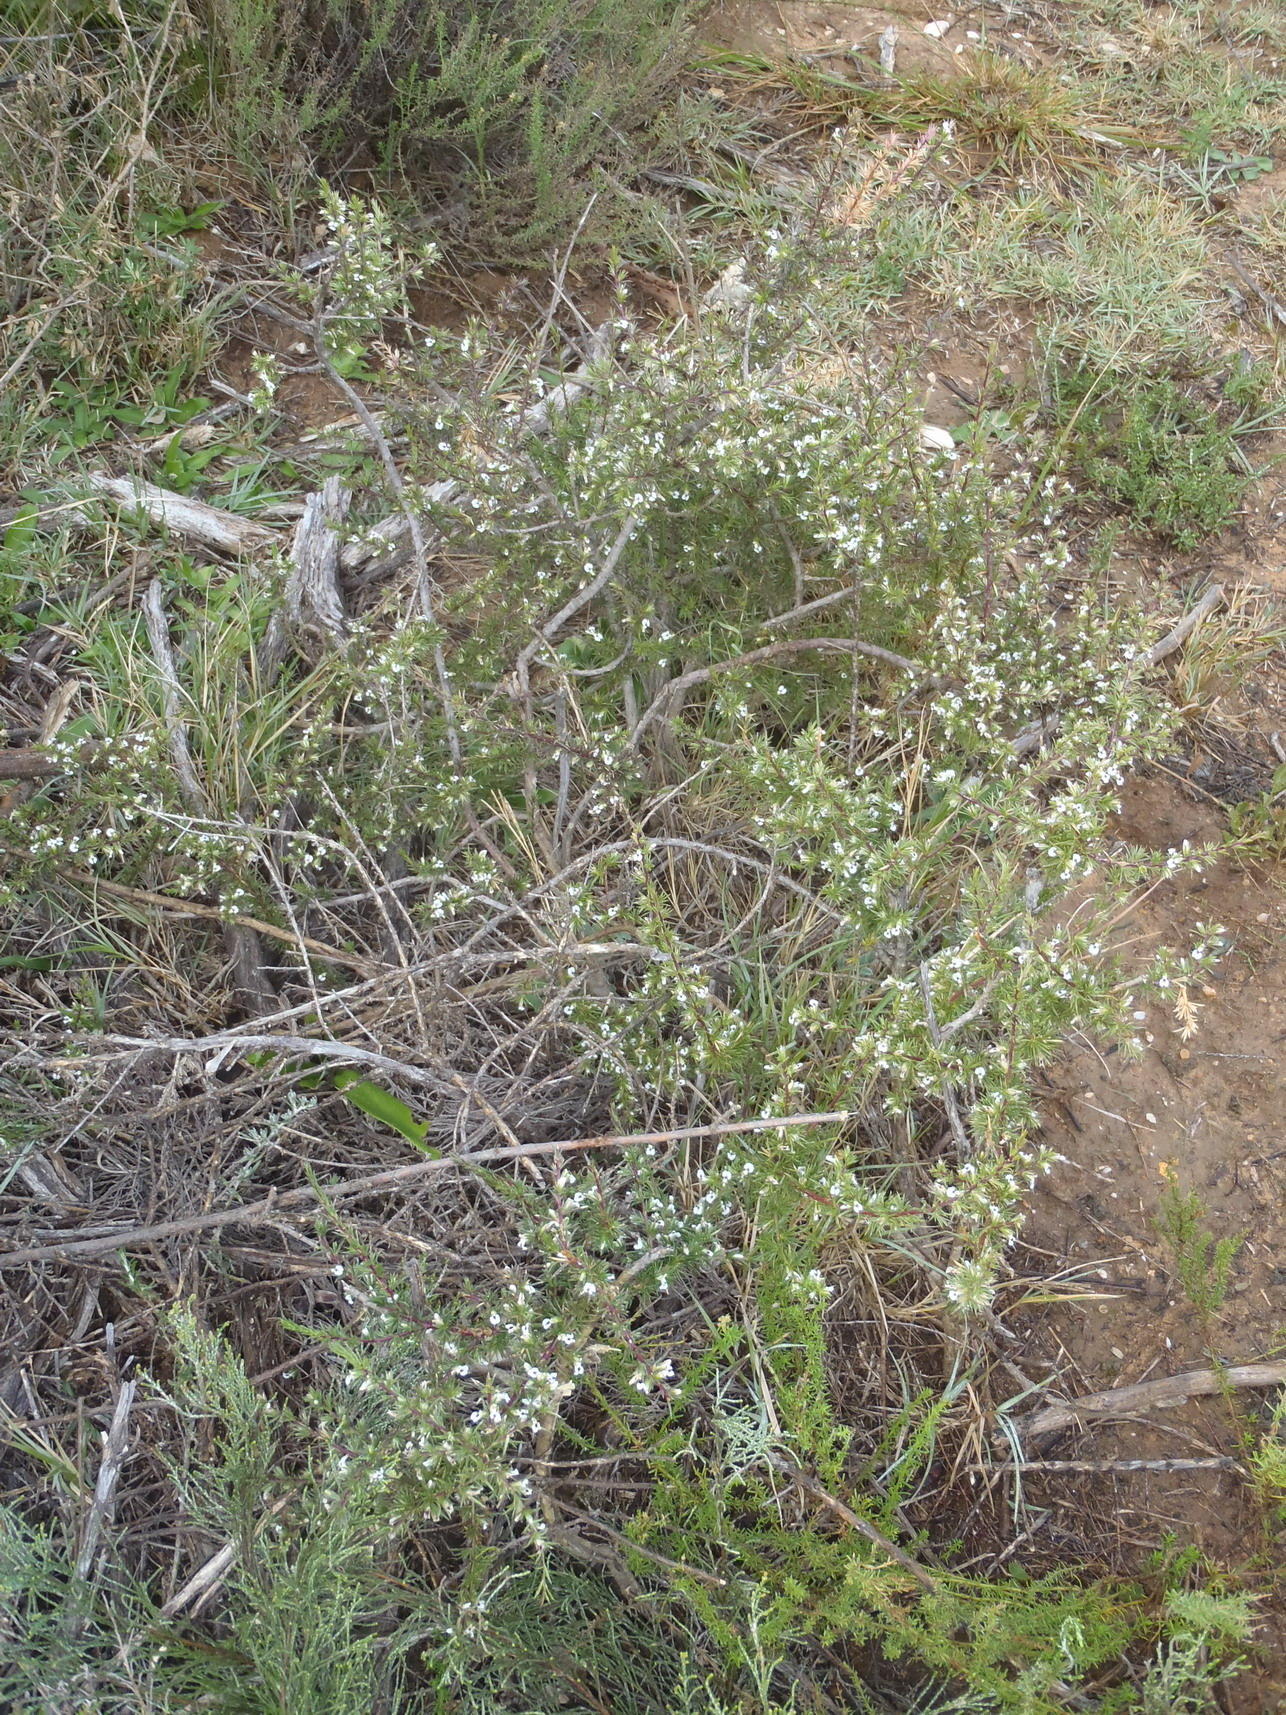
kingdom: Plantae
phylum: Tracheophyta
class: Magnoliopsida
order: Fabales
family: Polygalaceae
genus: Muraltia
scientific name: Muraltia ericifolia
